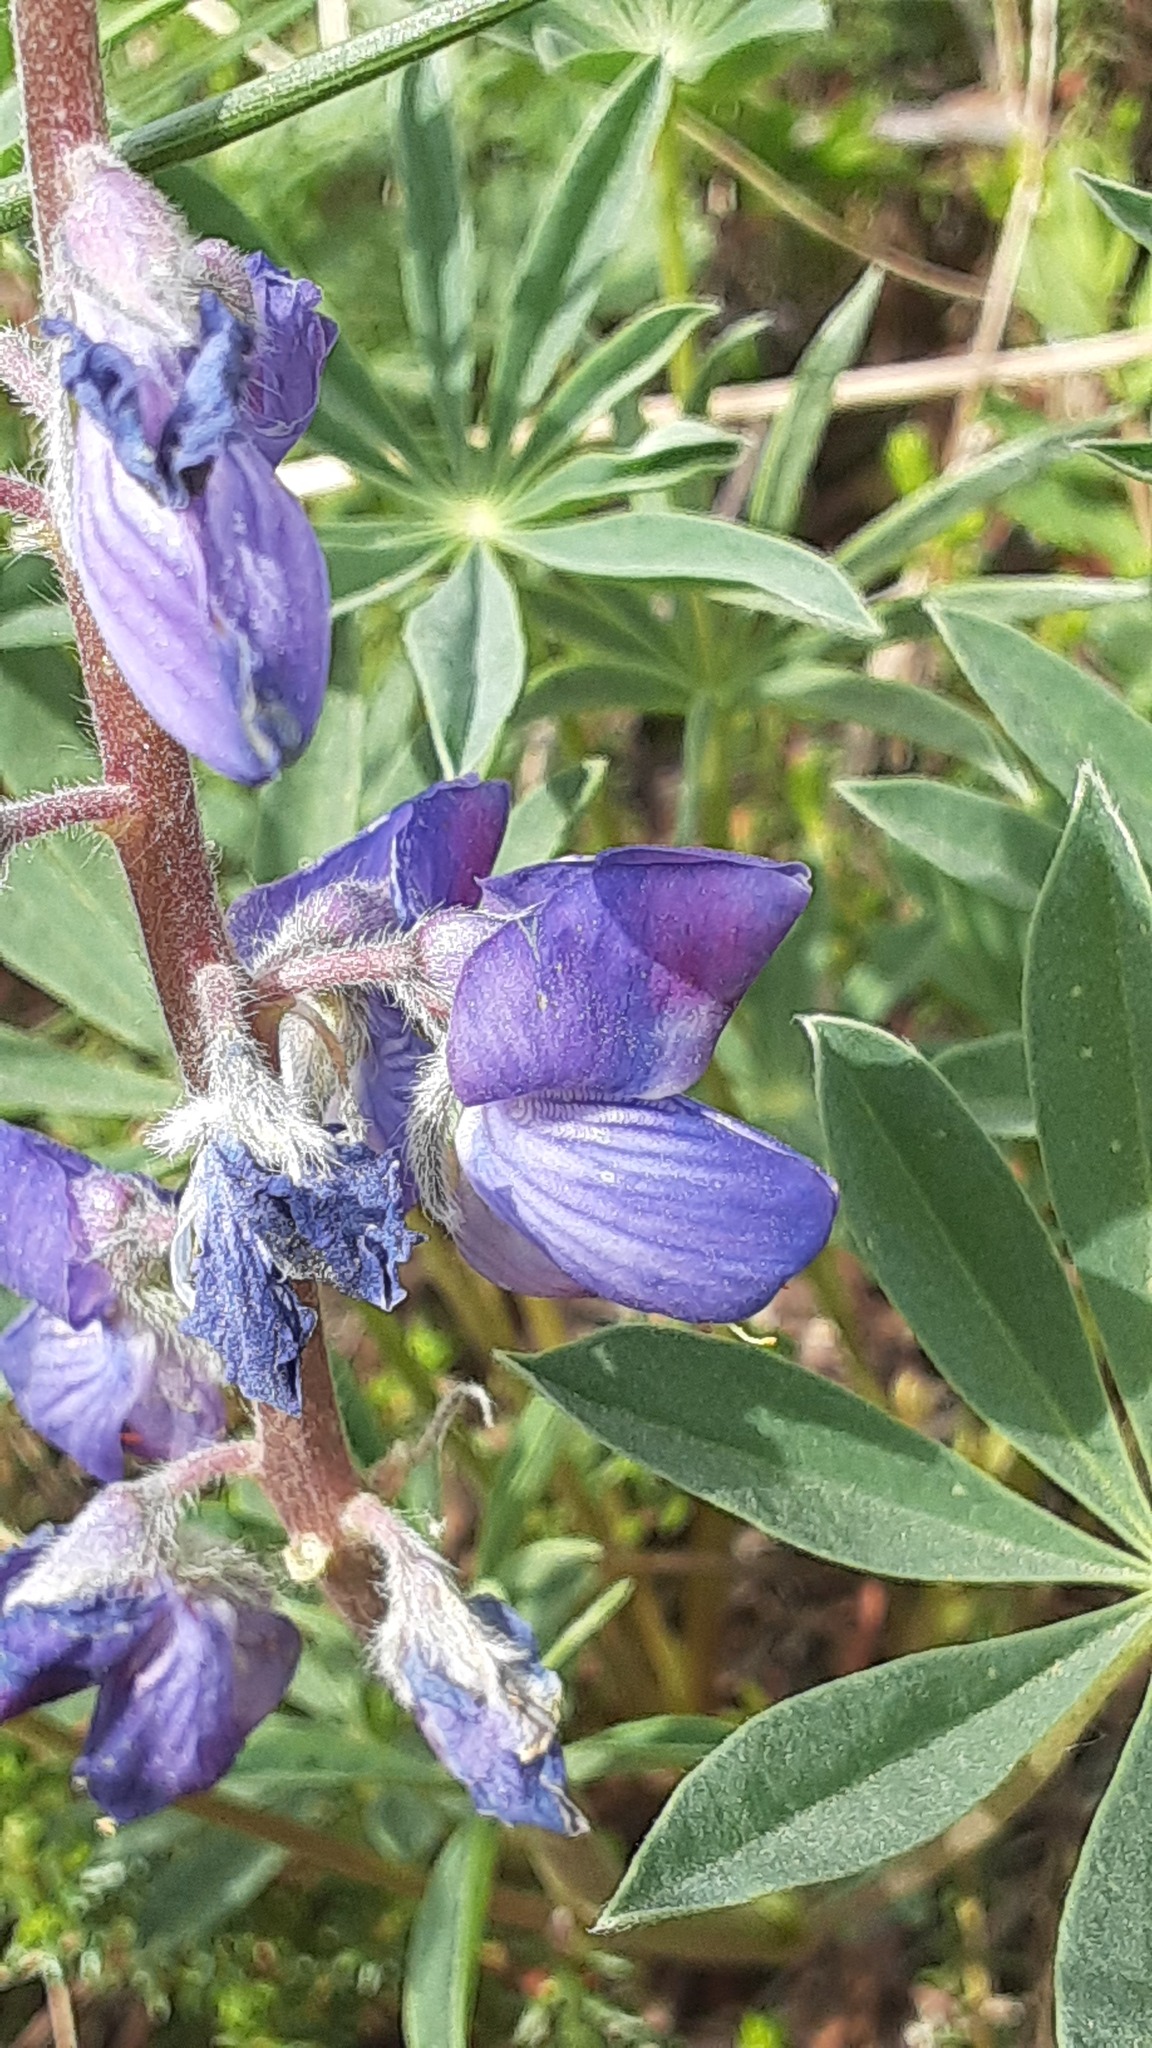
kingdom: Plantae
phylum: Tracheophyta
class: Magnoliopsida
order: Fabales
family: Fabaceae
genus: Lupinus
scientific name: Lupinus arcticus
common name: Arctic lupine
